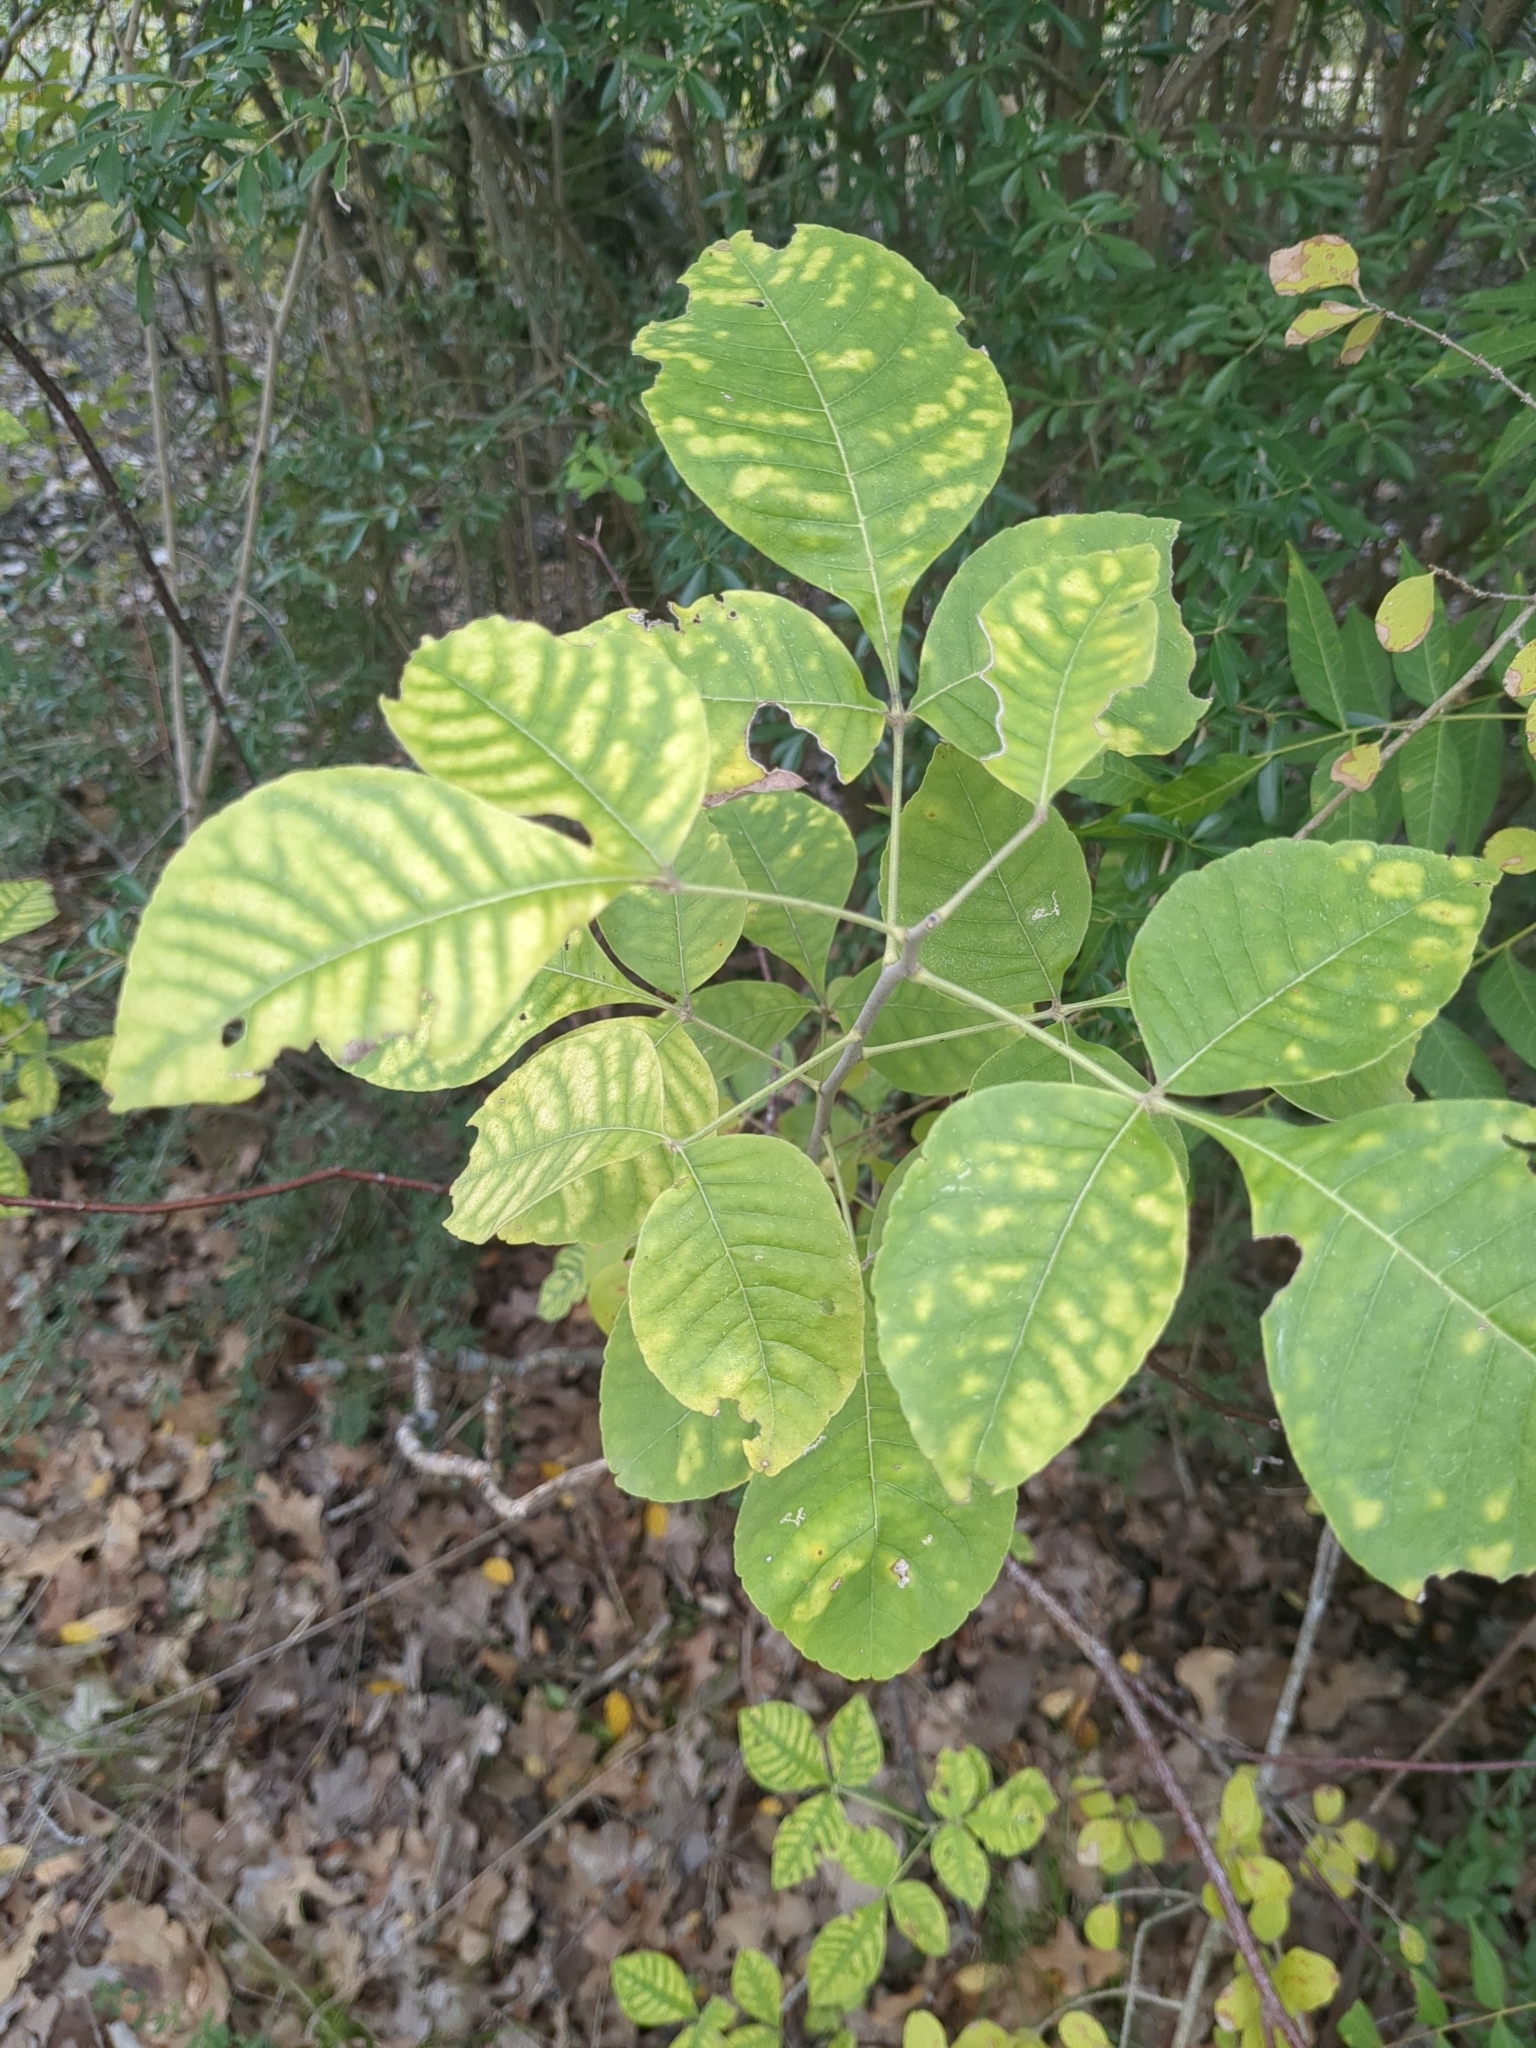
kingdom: Plantae
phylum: Tracheophyta
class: Magnoliopsida
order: Sapindales
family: Rutaceae
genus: Ptelea
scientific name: Ptelea trifoliata
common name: Common hop-tree
